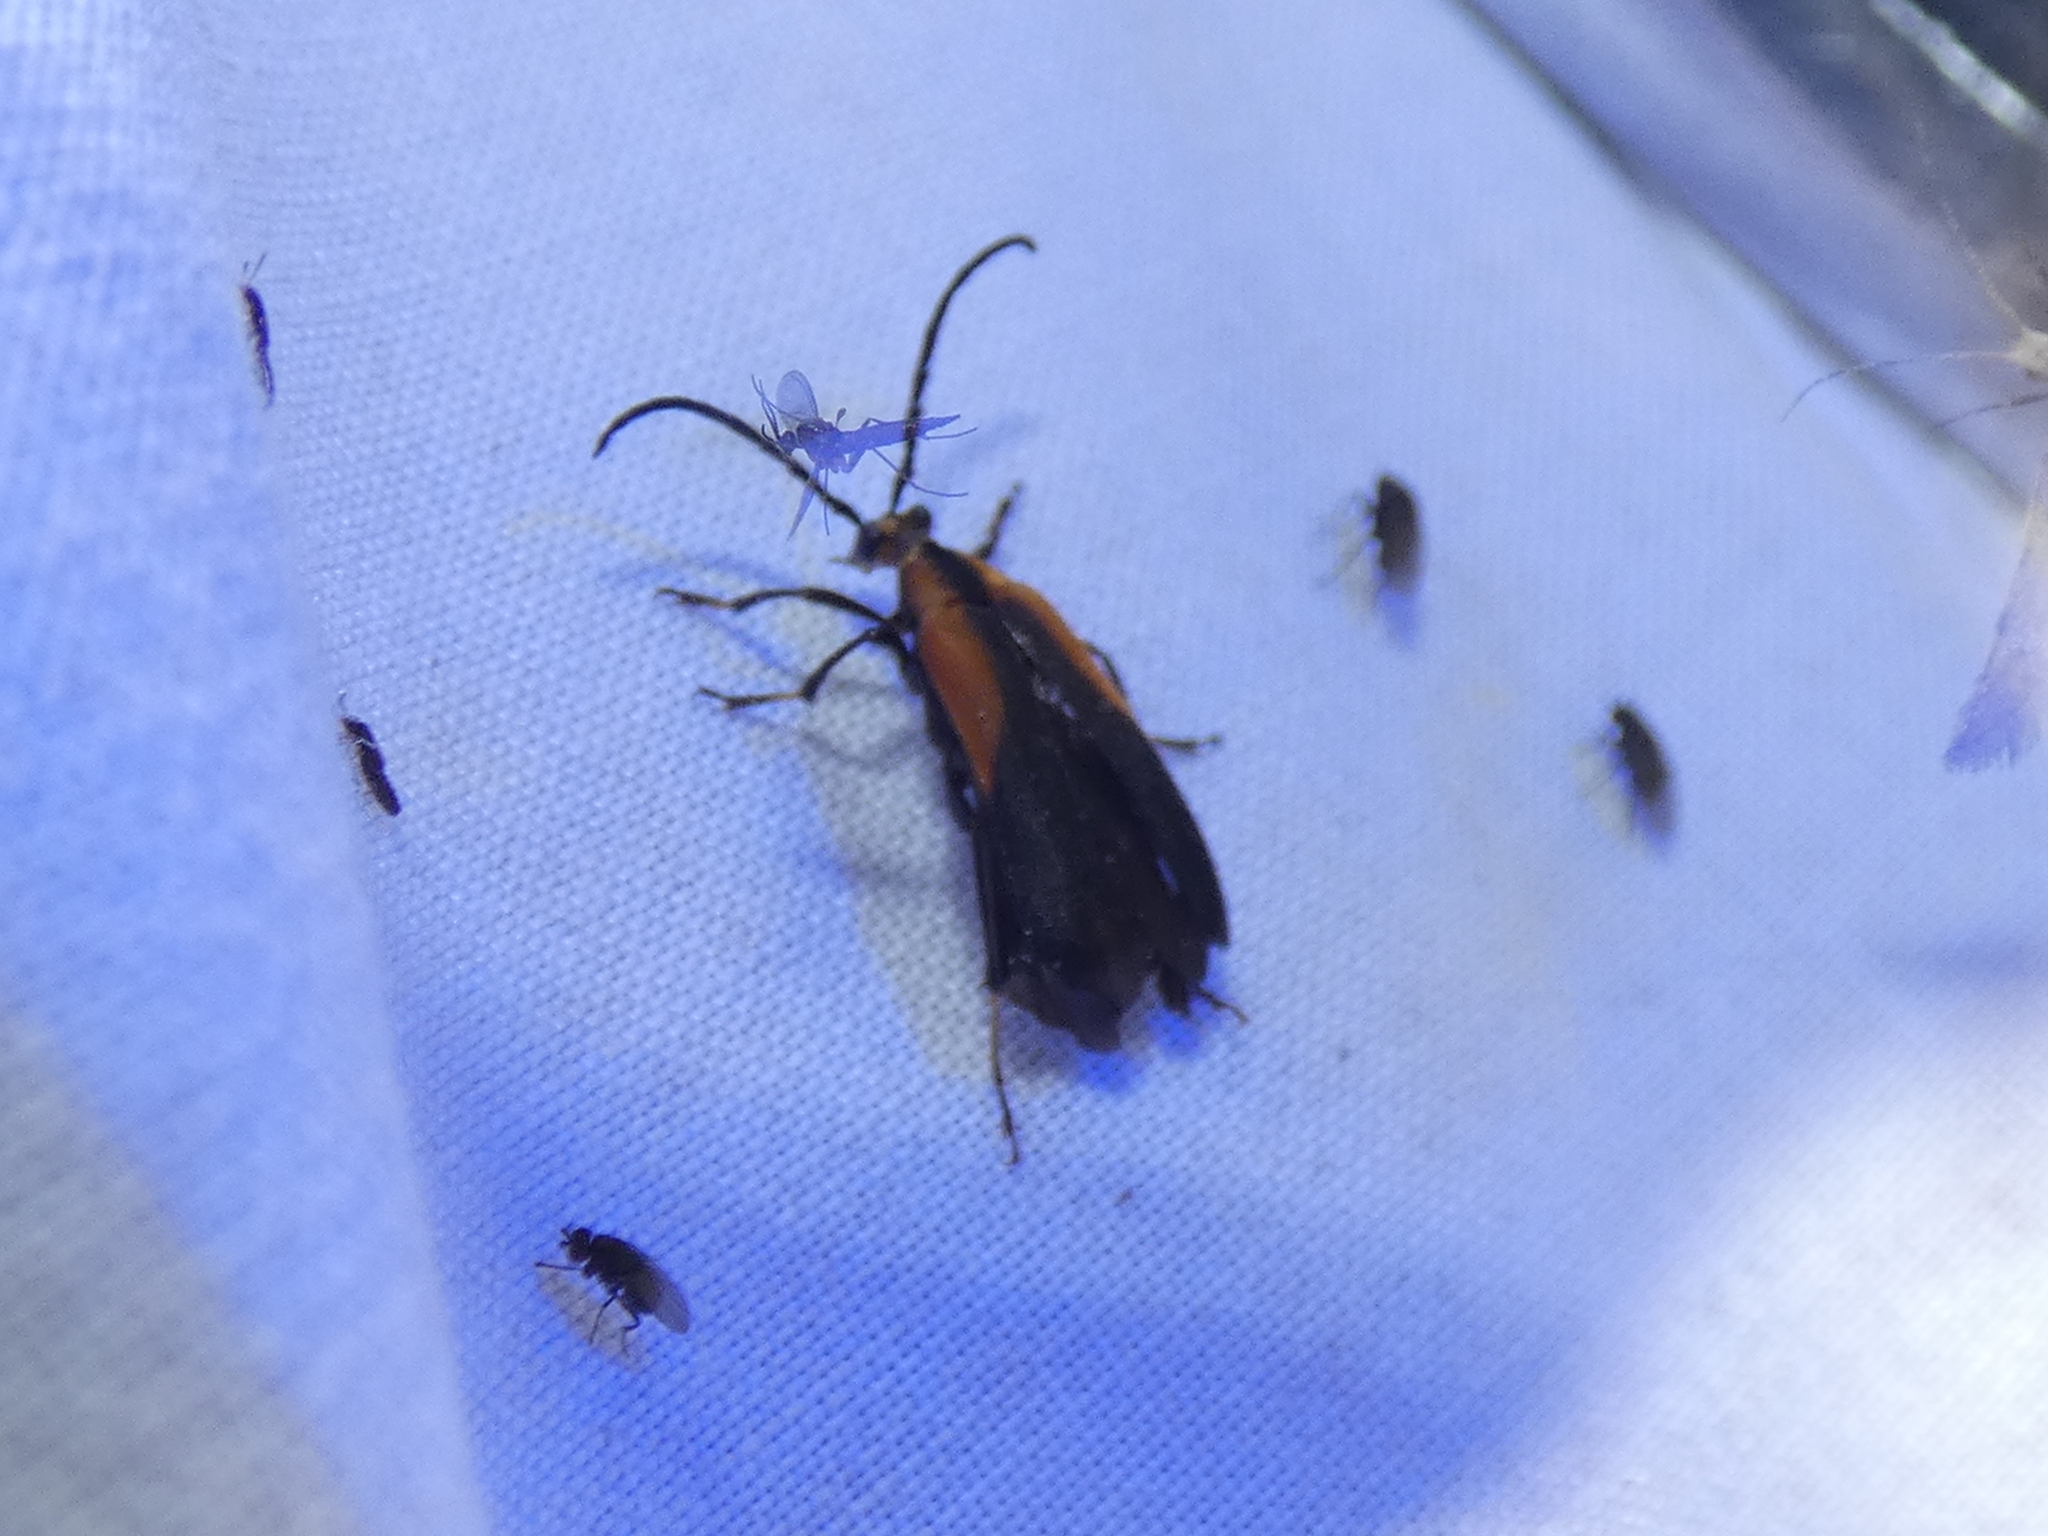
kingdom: Animalia
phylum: Arthropoda
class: Insecta
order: Coleoptera
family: Cerambycidae
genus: Lycochoriolaus
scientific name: Lycochoriolaus lateralis
